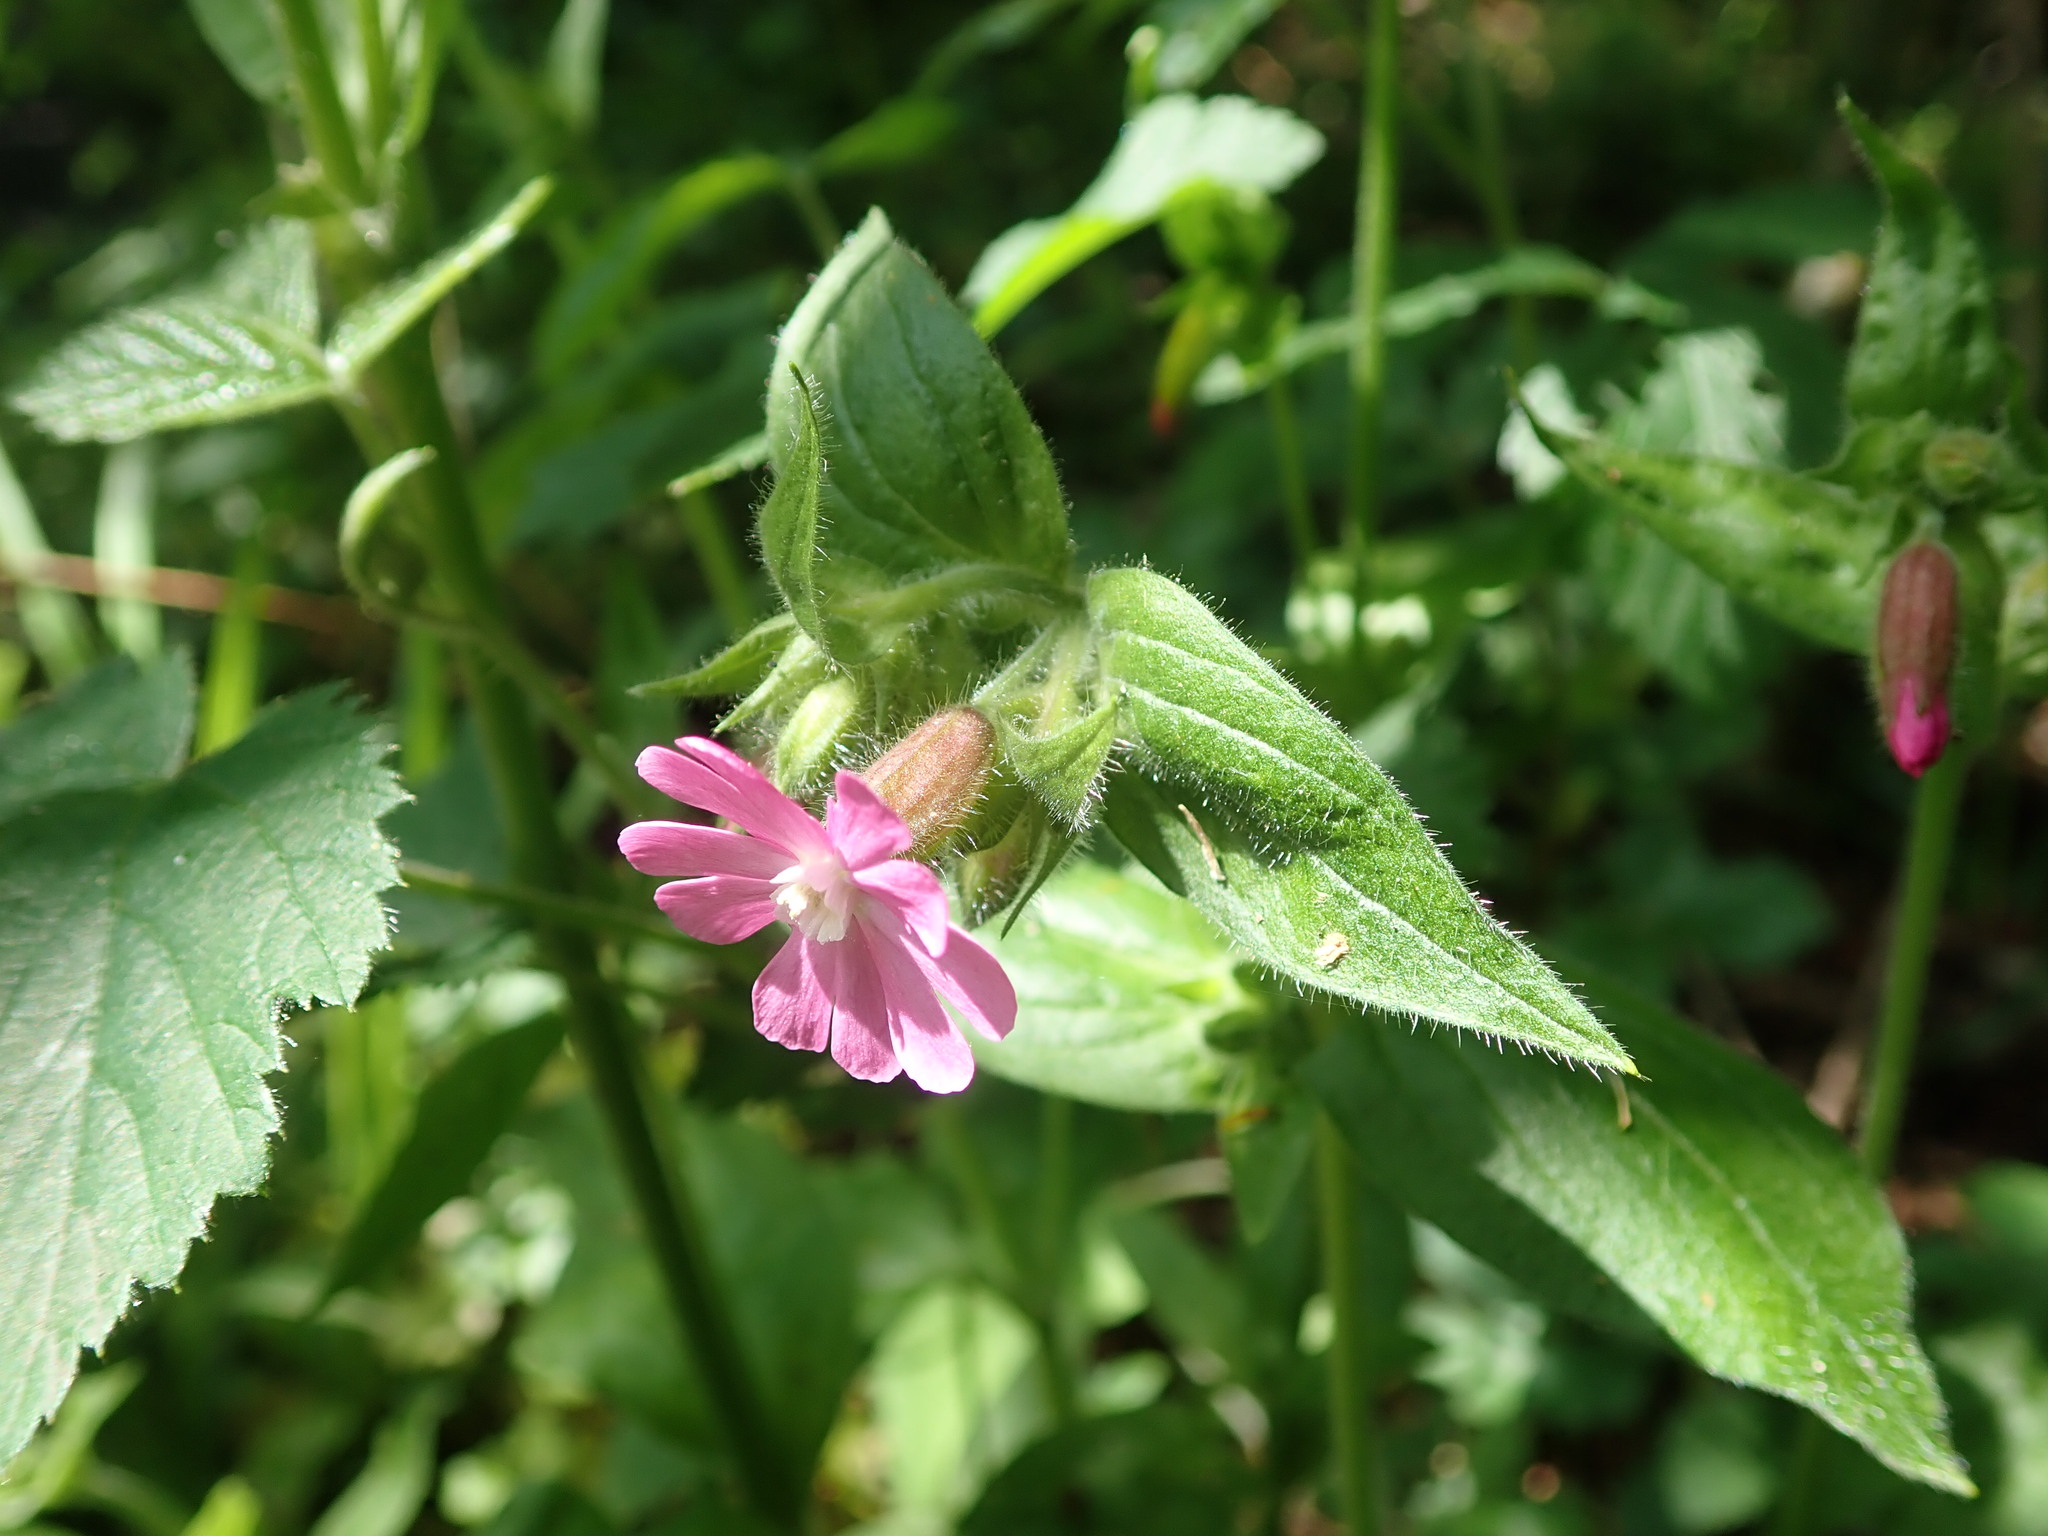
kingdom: Plantae
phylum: Tracheophyta
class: Magnoliopsida
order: Caryophyllales
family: Caryophyllaceae
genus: Silene
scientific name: Silene dioica
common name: Red campion
